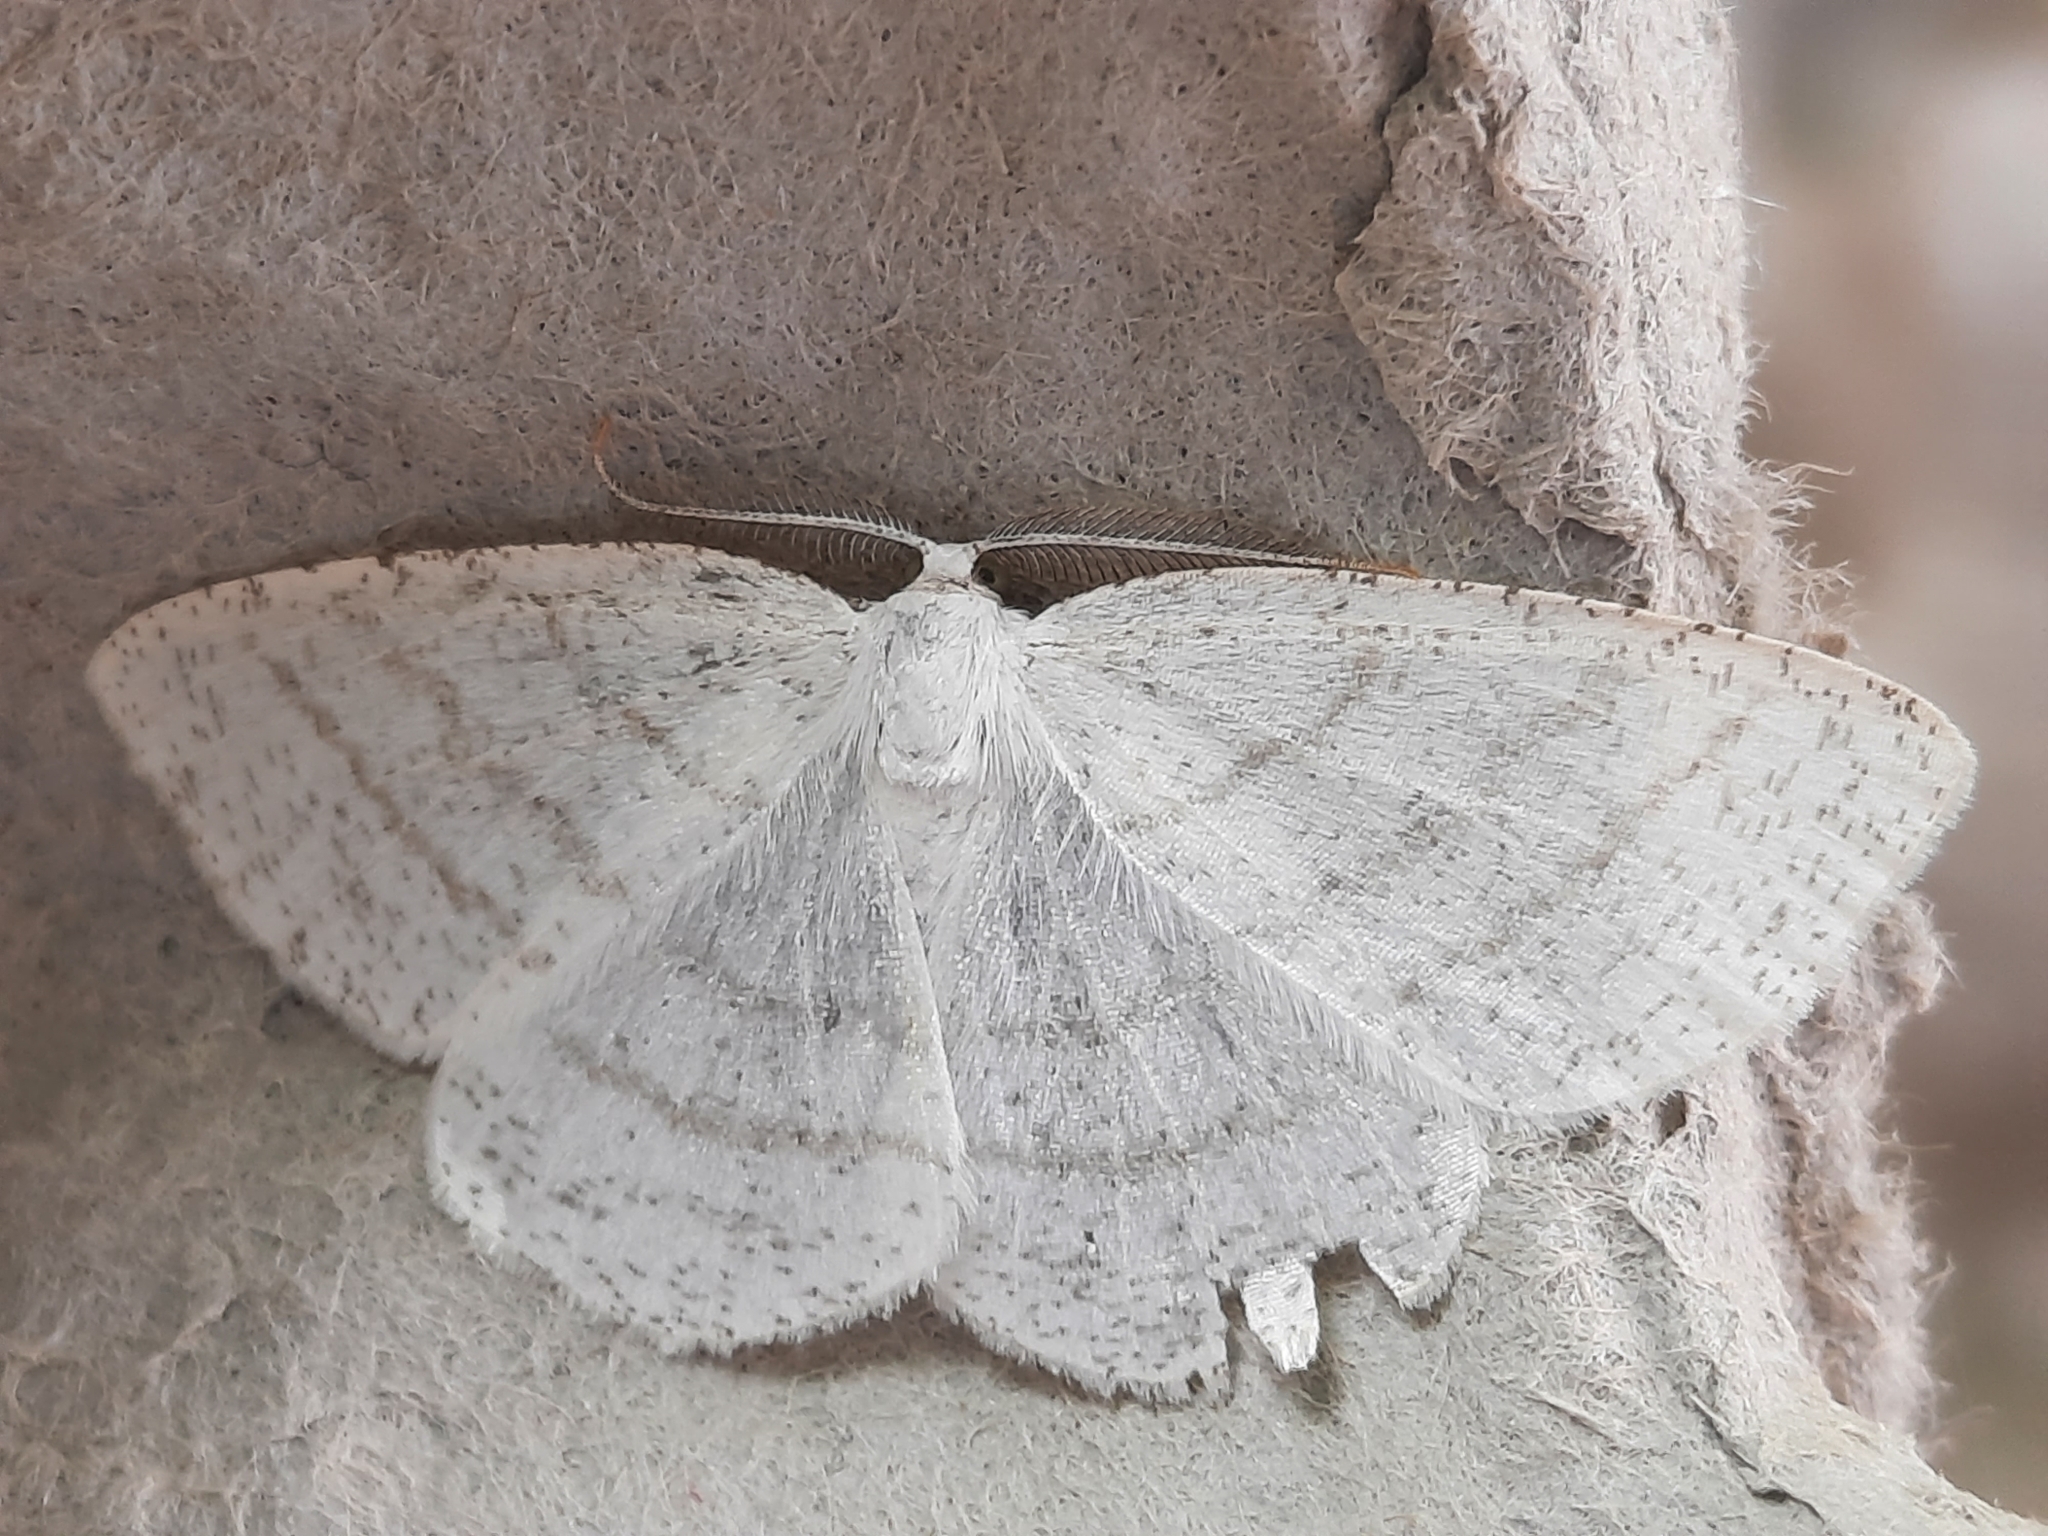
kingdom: Animalia
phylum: Arthropoda
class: Insecta
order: Lepidoptera
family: Geometridae
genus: Cabera
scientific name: Cabera pusaria
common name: Common white wave
